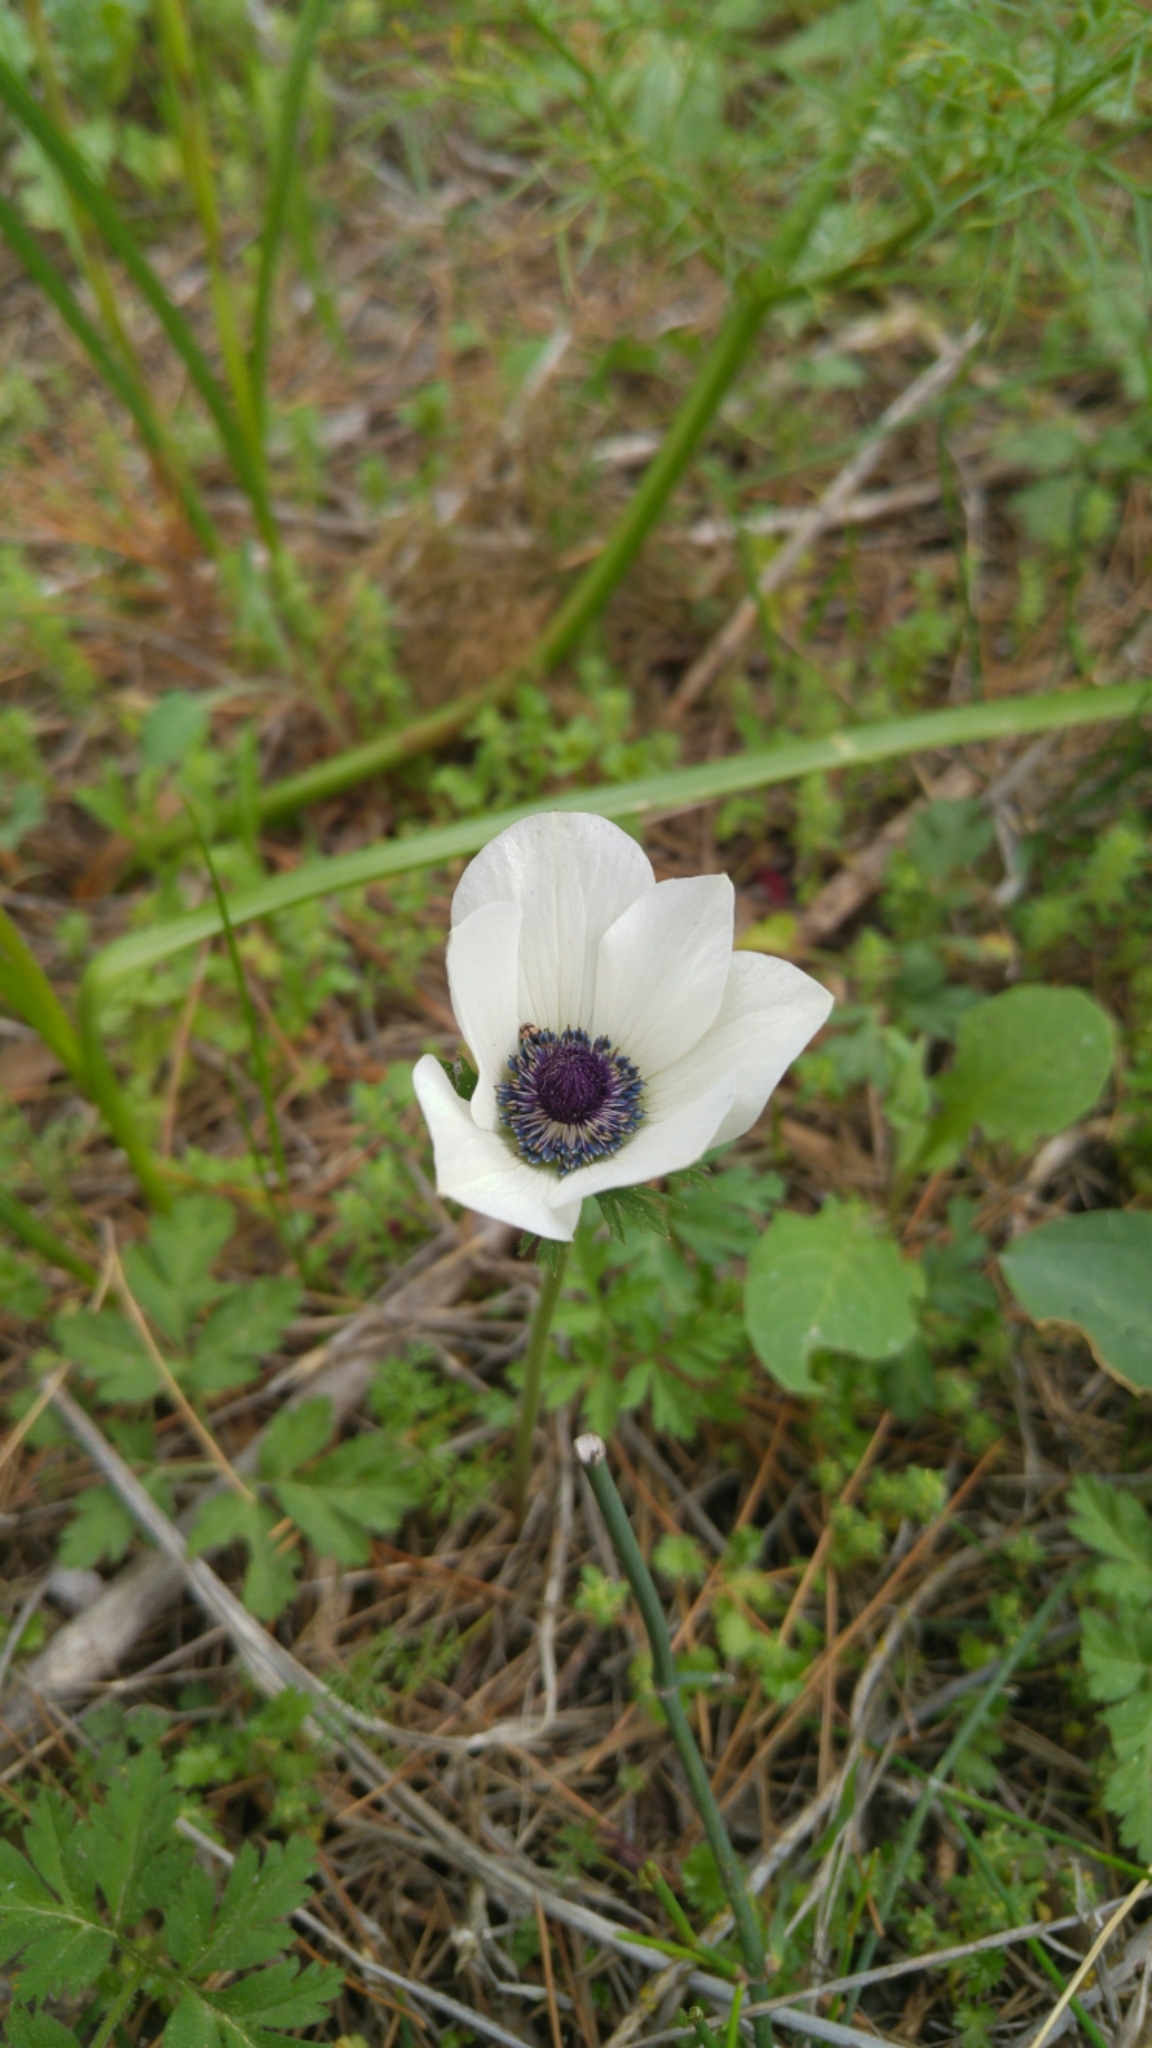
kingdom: Plantae
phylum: Tracheophyta
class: Magnoliopsida
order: Ranunculales
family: Ranunculaceae
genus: Anemone
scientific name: Anemone coronaria
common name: Poppy anemone
